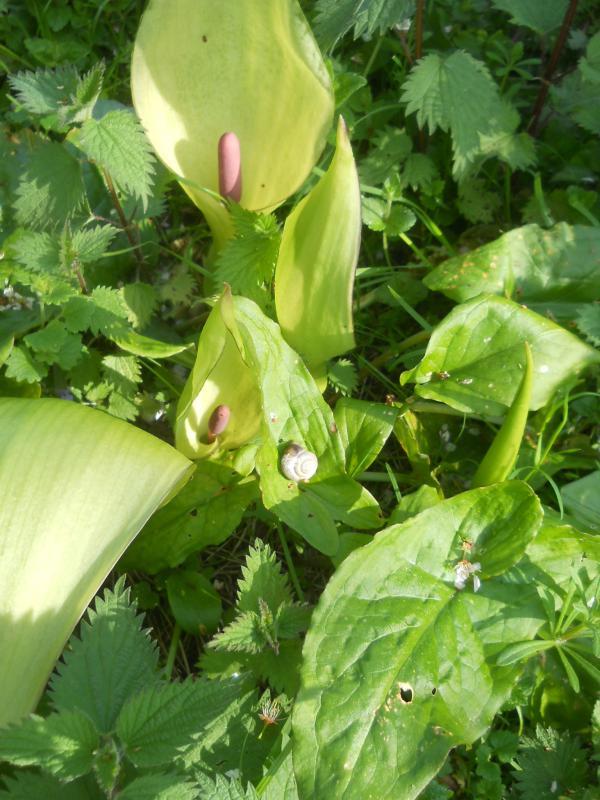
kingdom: Plantae
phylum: Tracheophyta
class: Liliopsida
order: Alismatales
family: Araceae
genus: Arum
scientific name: Arum maculatum
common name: Lords-and-ladies
